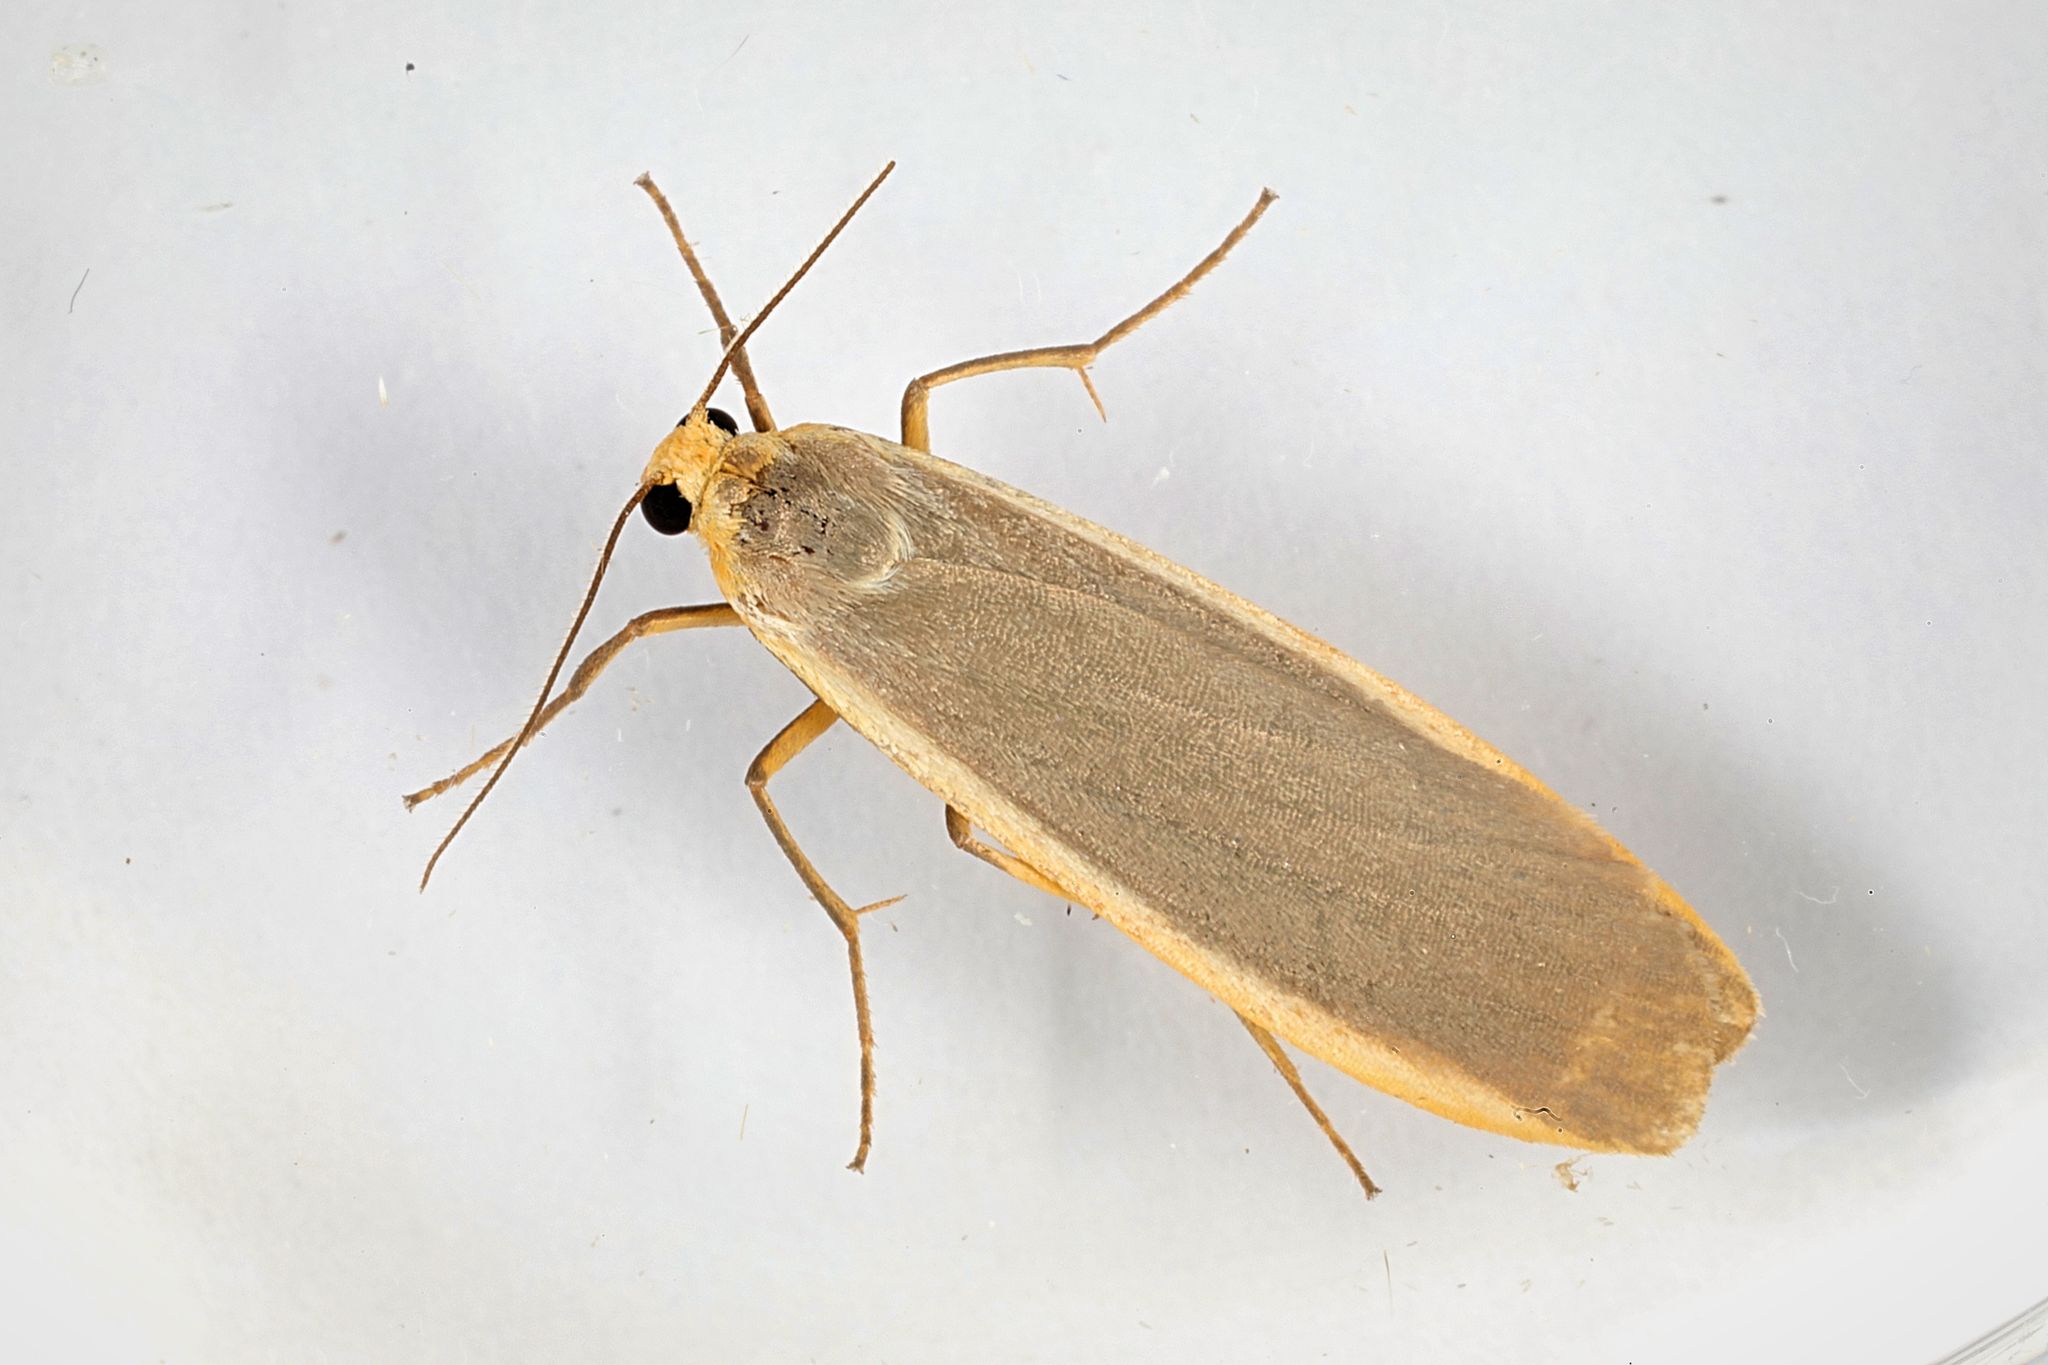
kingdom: Animalia
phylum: Arthropoda
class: Insecta
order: Lepidoptera
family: Erebidae
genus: Nyea
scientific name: Nyea lurideola
